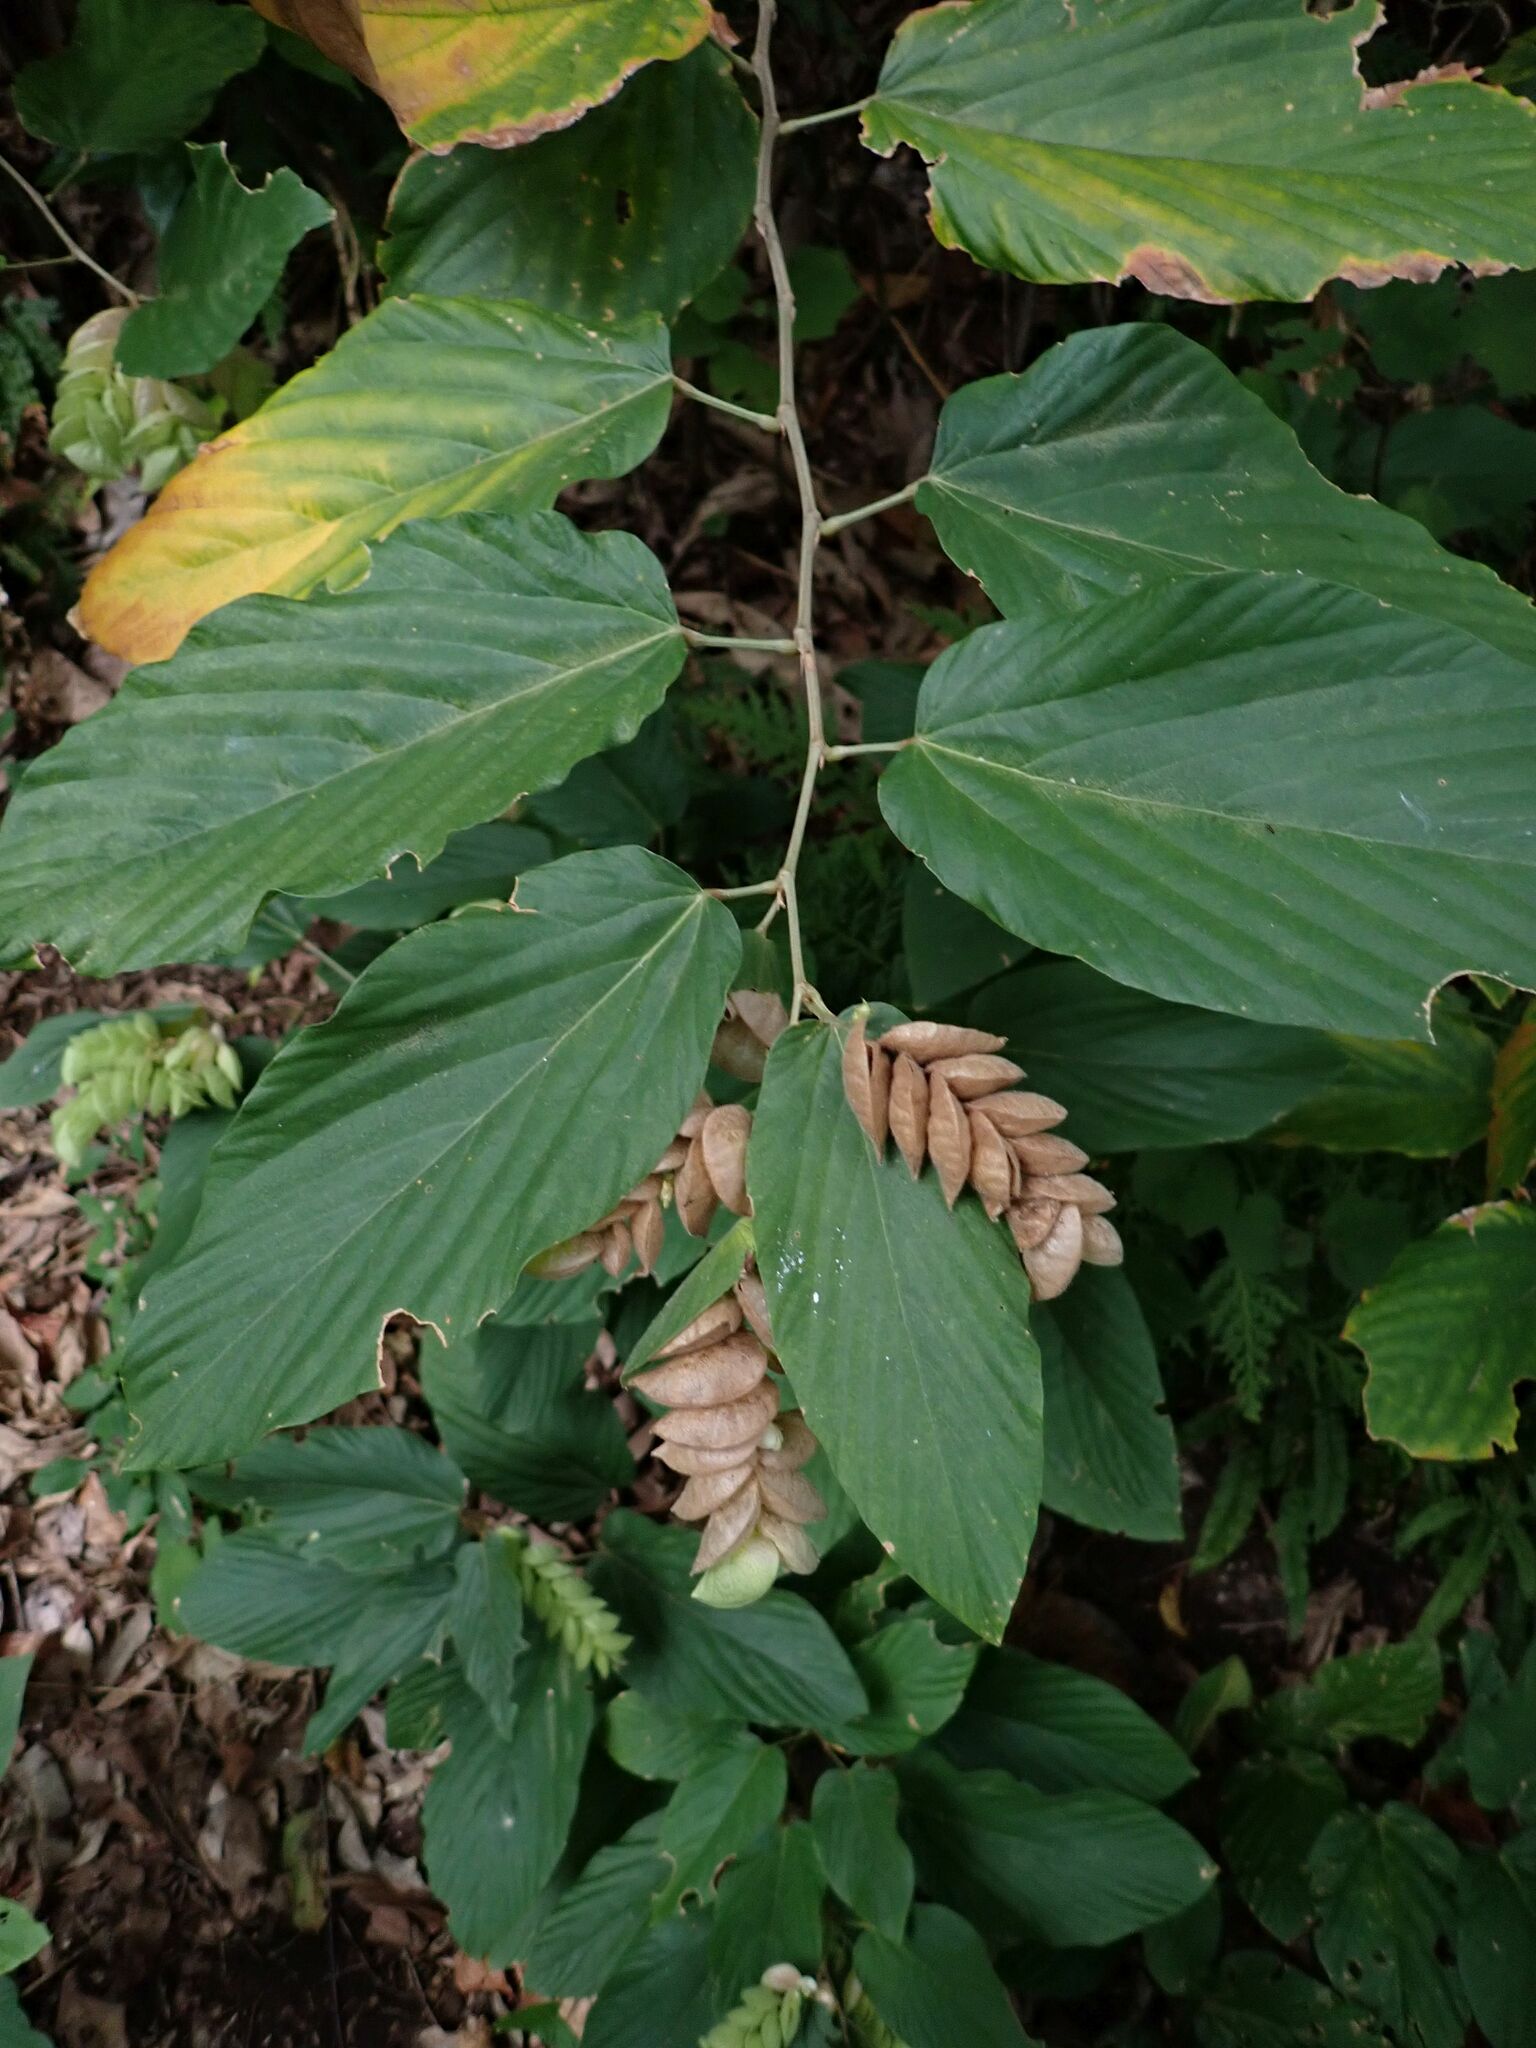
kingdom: Plantae
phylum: Tracheophyta
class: Magnoliopsida
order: Fabales
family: Fabaceae
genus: Flemingia
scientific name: Flemingia strobilifera
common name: Wild hops
